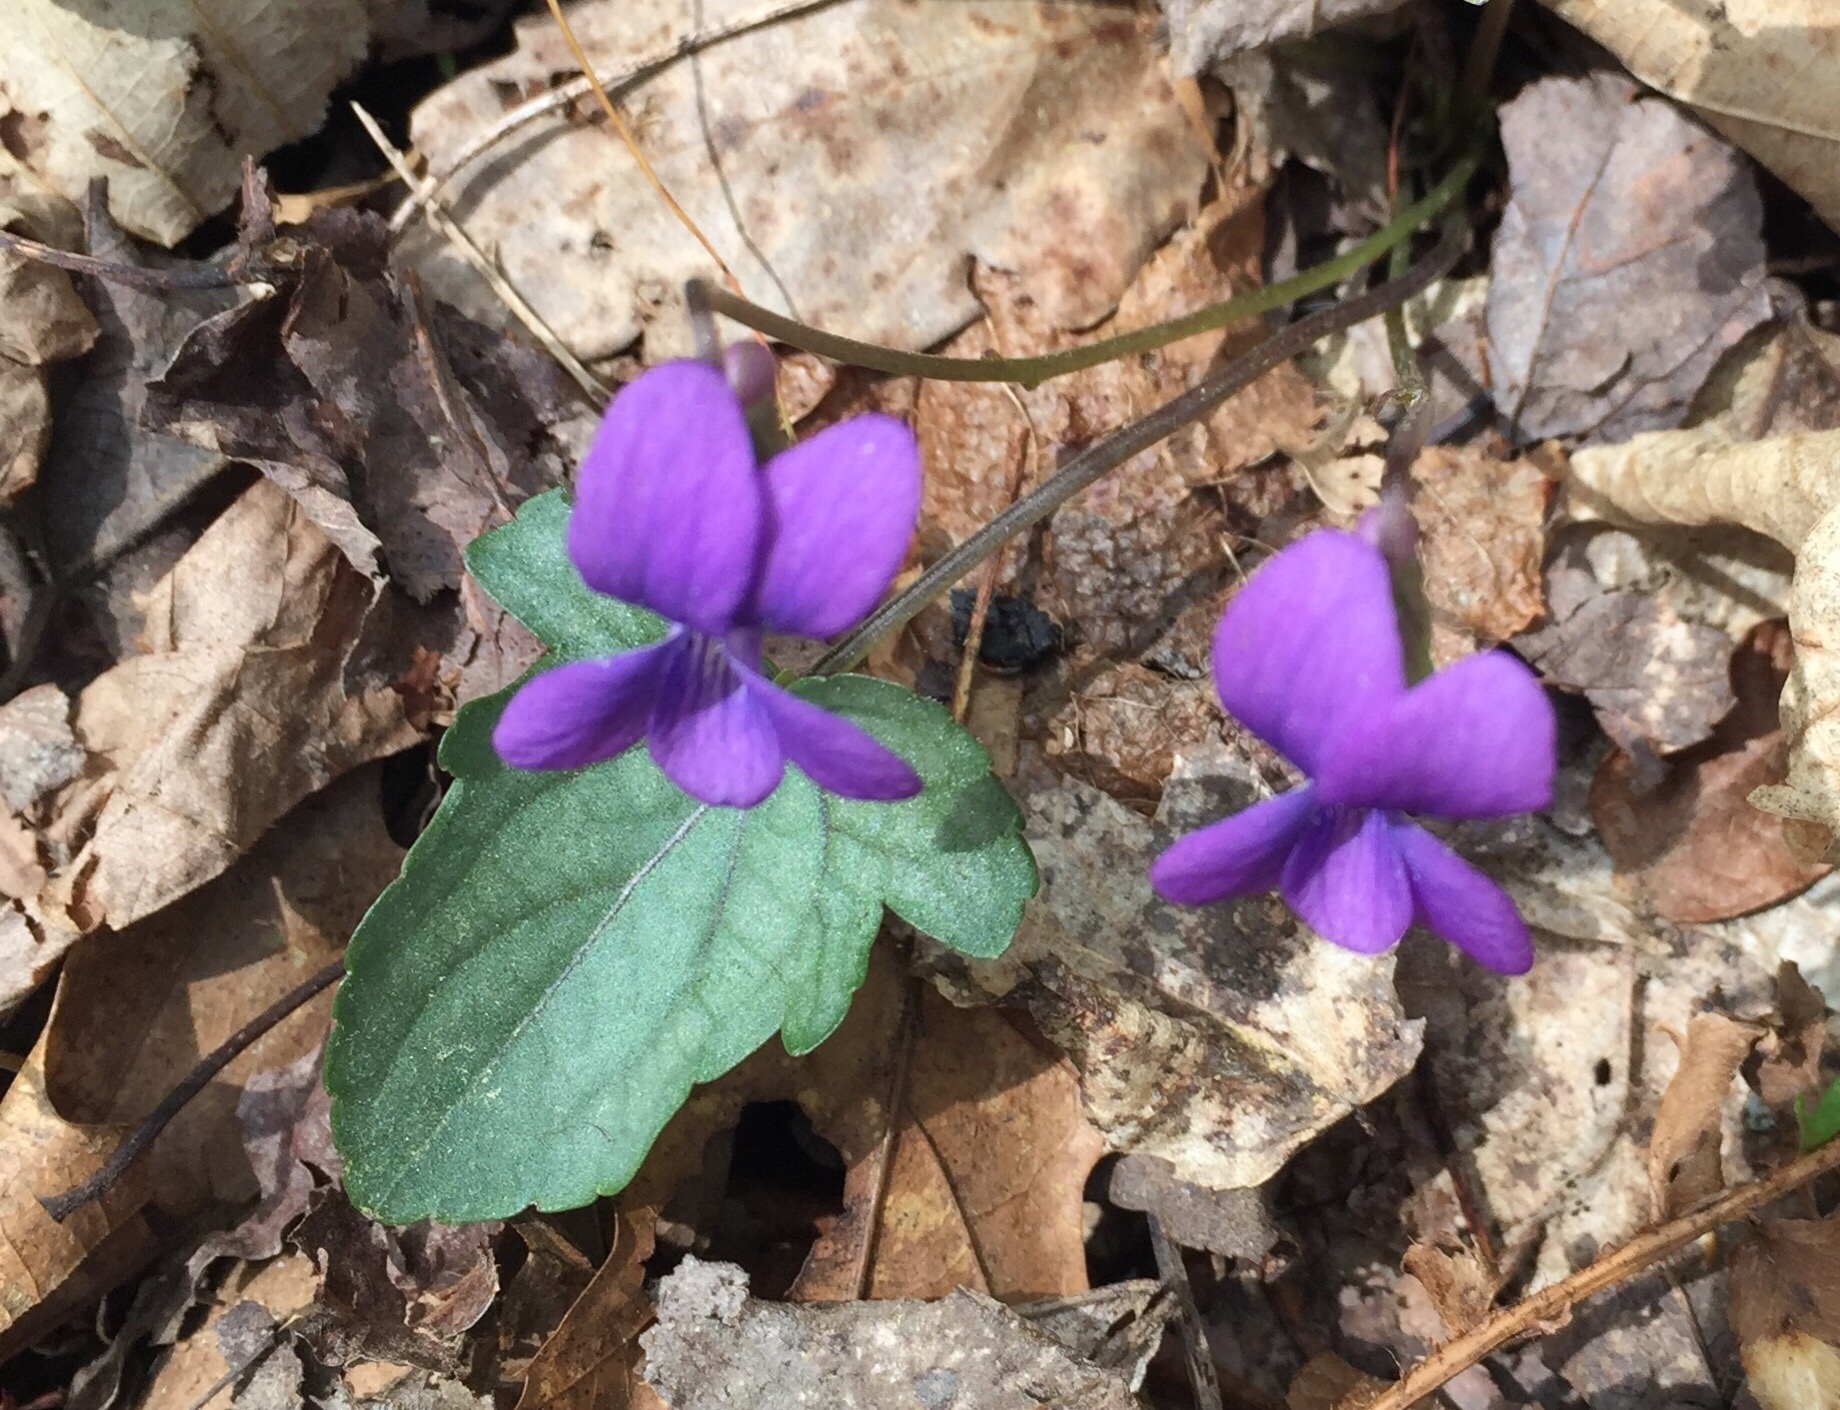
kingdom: Plantae
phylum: Tracheophyta
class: Magnoliopsida
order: Malpighiales
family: Violaceae
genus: Viola
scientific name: Viola palmata
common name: Early blue violet
